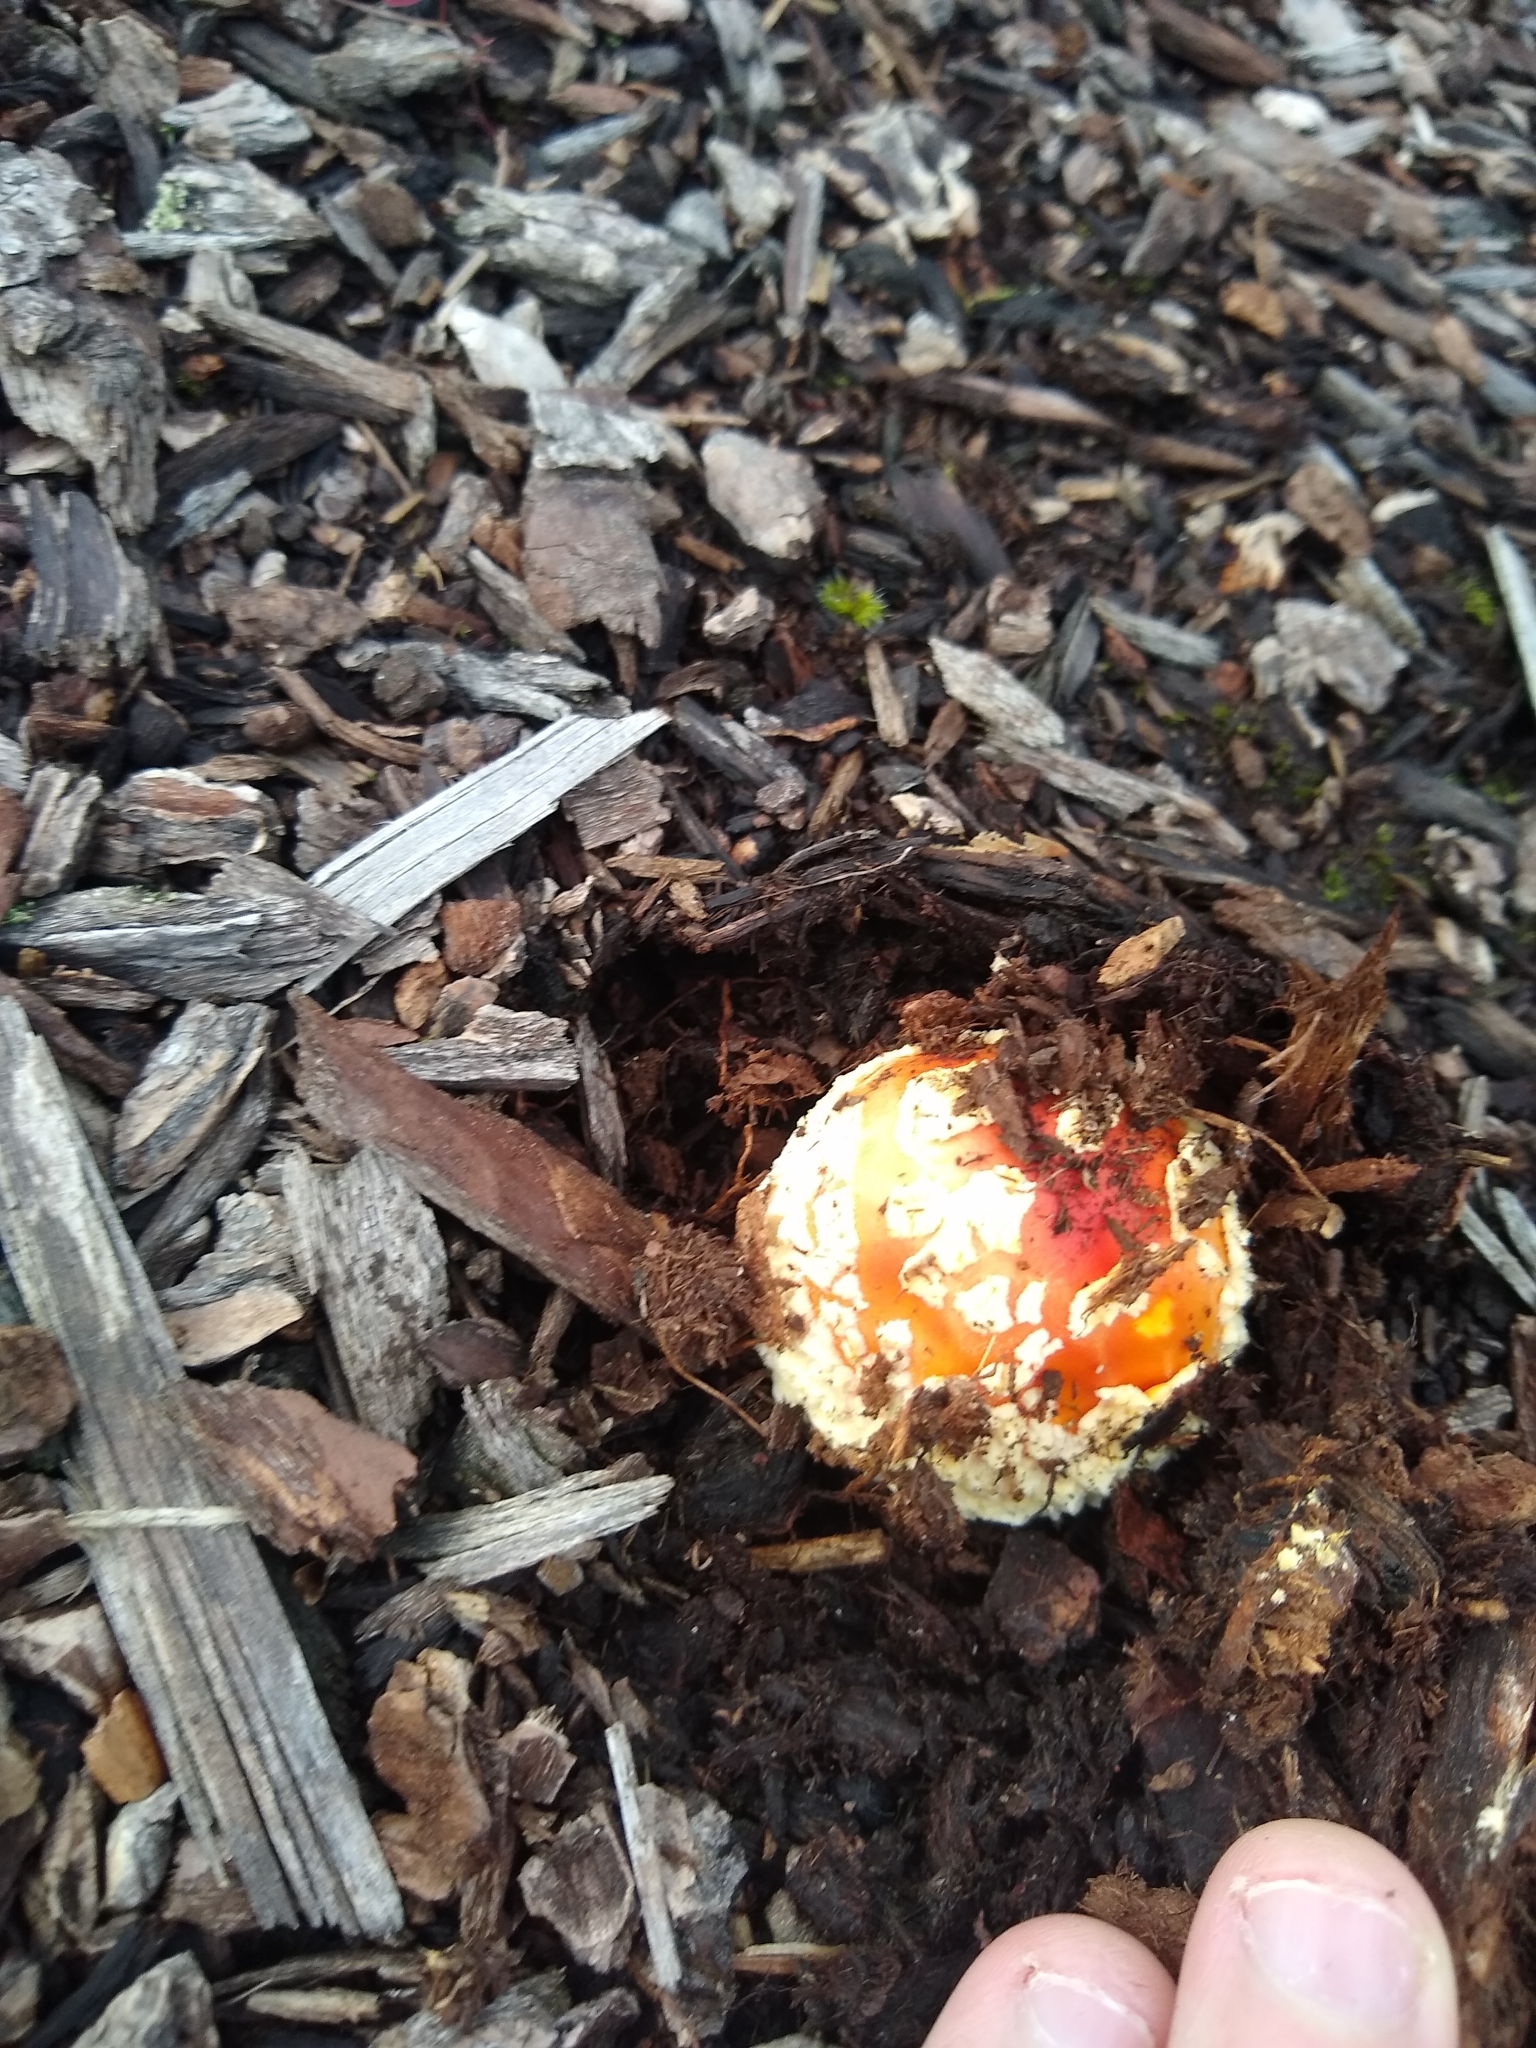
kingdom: Fungi
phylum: Basidiomycota
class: Agaricomycetes
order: Agaricales
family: Amanitaceae
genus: Amanita
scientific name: Amanita muscaria
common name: Fly agaric
